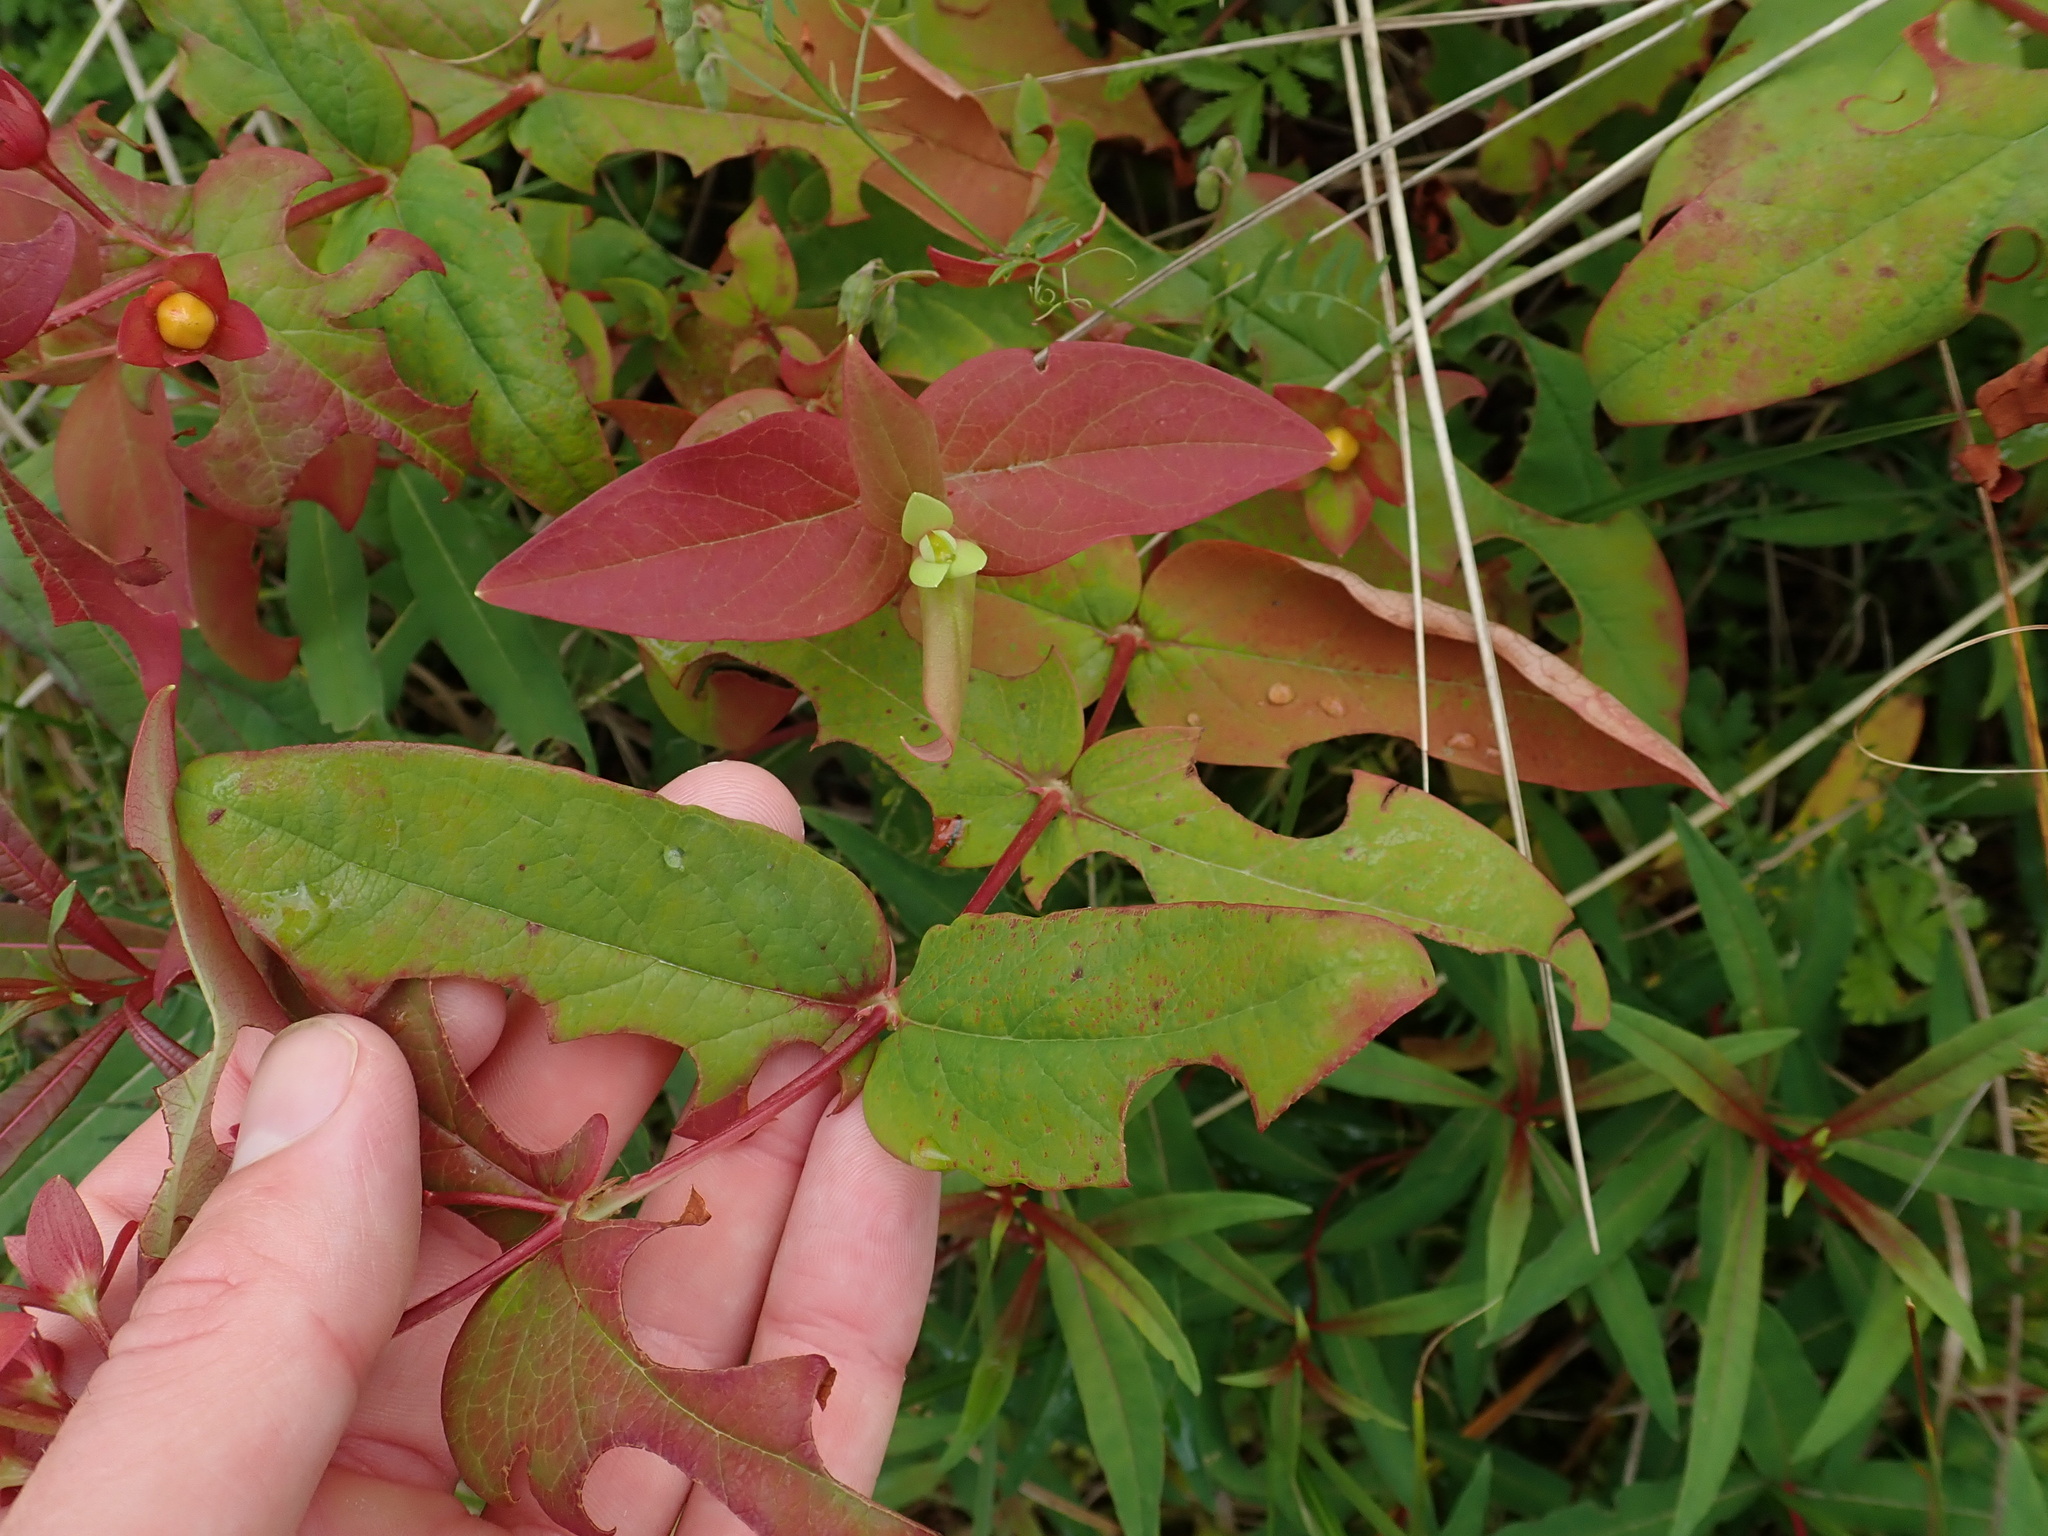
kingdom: Plantae
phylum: Tracheophyta
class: Magnoliopsida
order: Malpighiales
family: Hypericaceae
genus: Hypericum
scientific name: Hypericum androsaemum
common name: Sweet-amber
